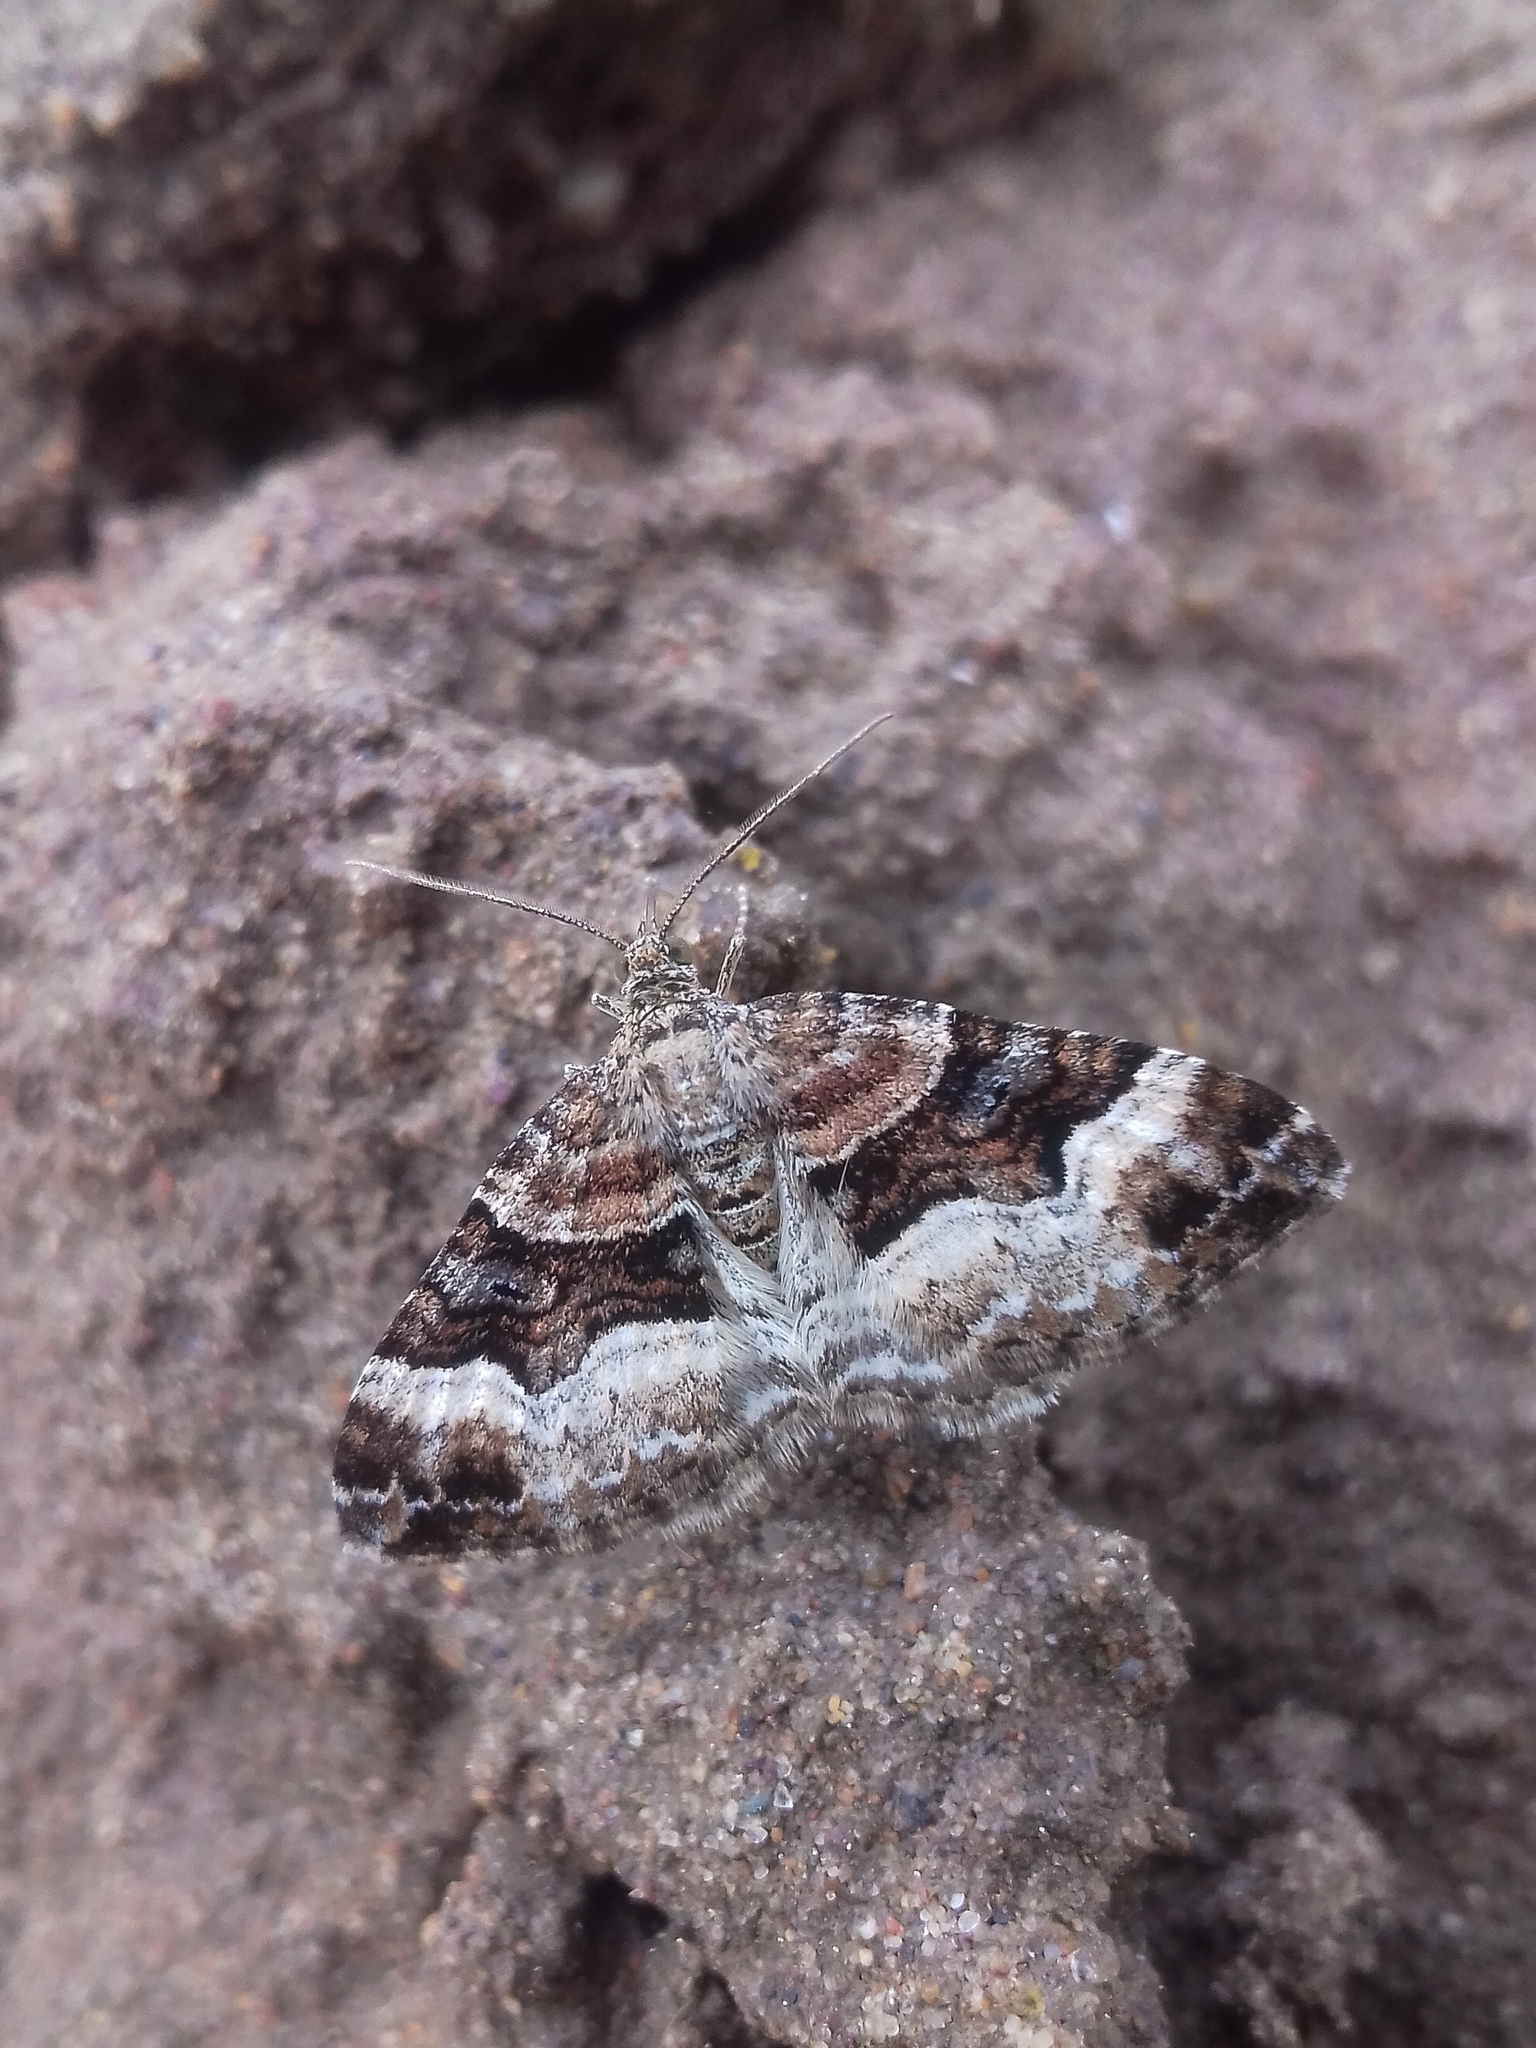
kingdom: Animalia
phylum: Arthropoda
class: Insecta
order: Lepidoptera
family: Geometridae
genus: Xanthorhoe
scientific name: Xanthorhoe biriviata
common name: Balsam carpet
